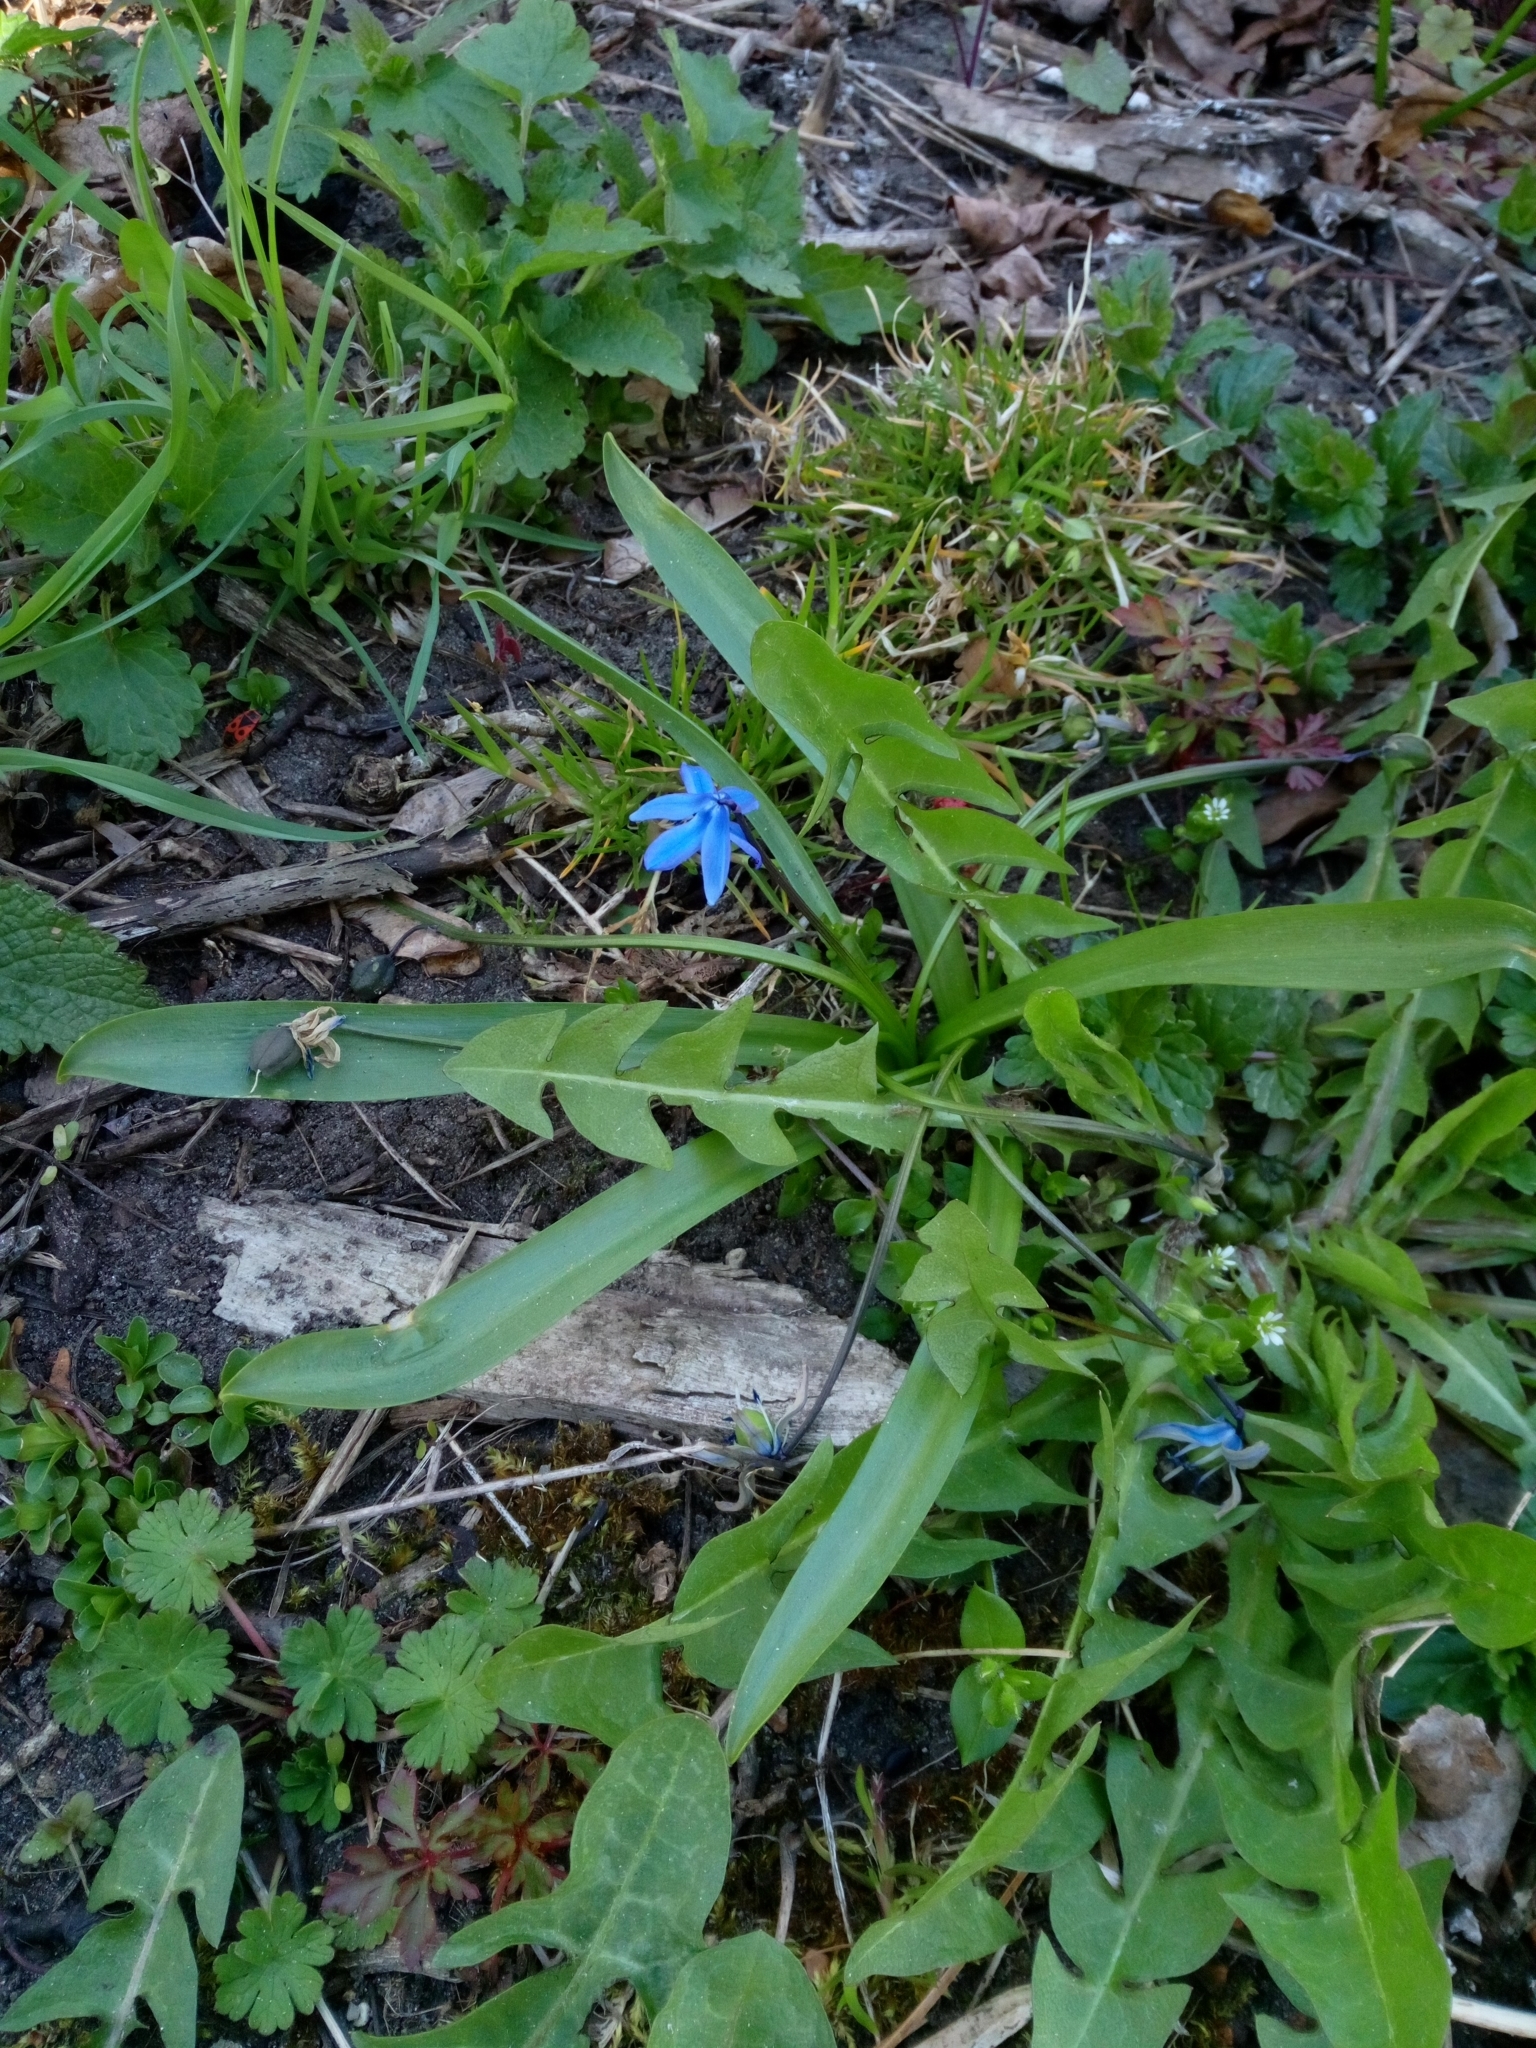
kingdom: Plantae
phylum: Tracheophyta
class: Liliopsida
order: Asparagales
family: Asparagaceae
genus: Scilla
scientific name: Scilla siberica
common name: Siberian squill
